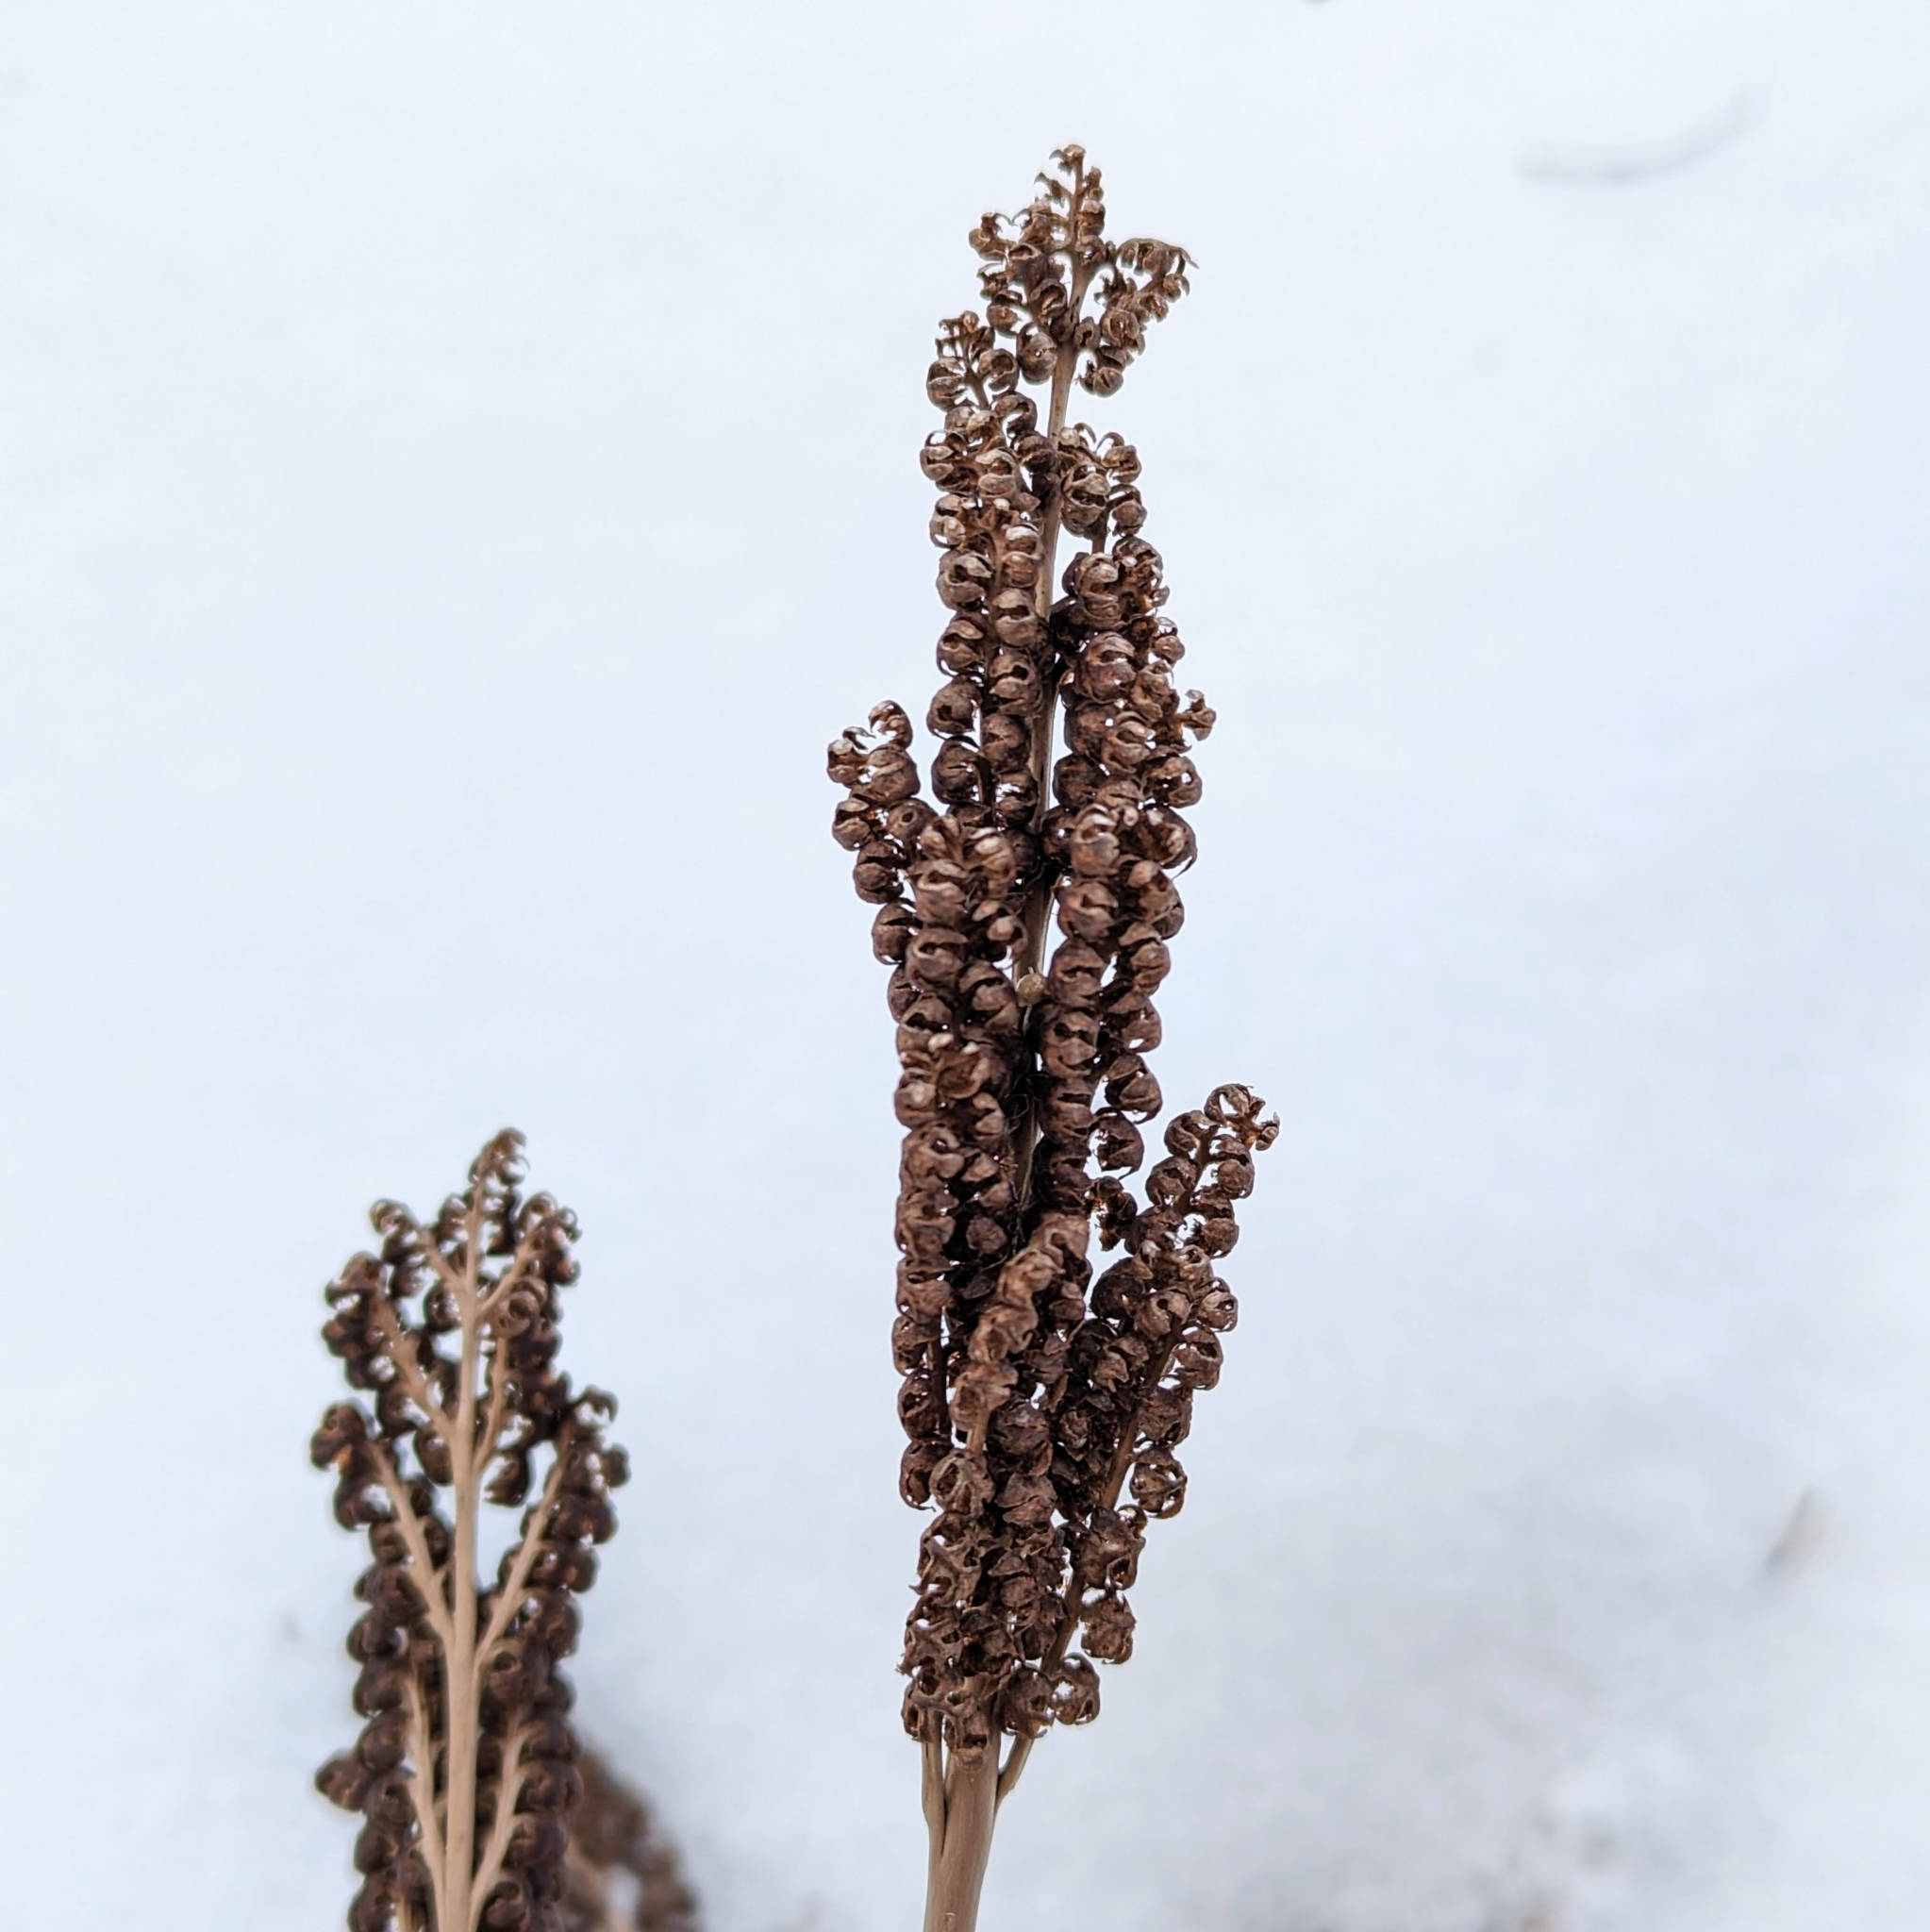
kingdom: Plantae
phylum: Tracheophyta
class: Polypodiopsida
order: Polypodiales
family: Onocleaceae
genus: Onoclea
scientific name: Onoclea sensibilis
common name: Sensitive fern
